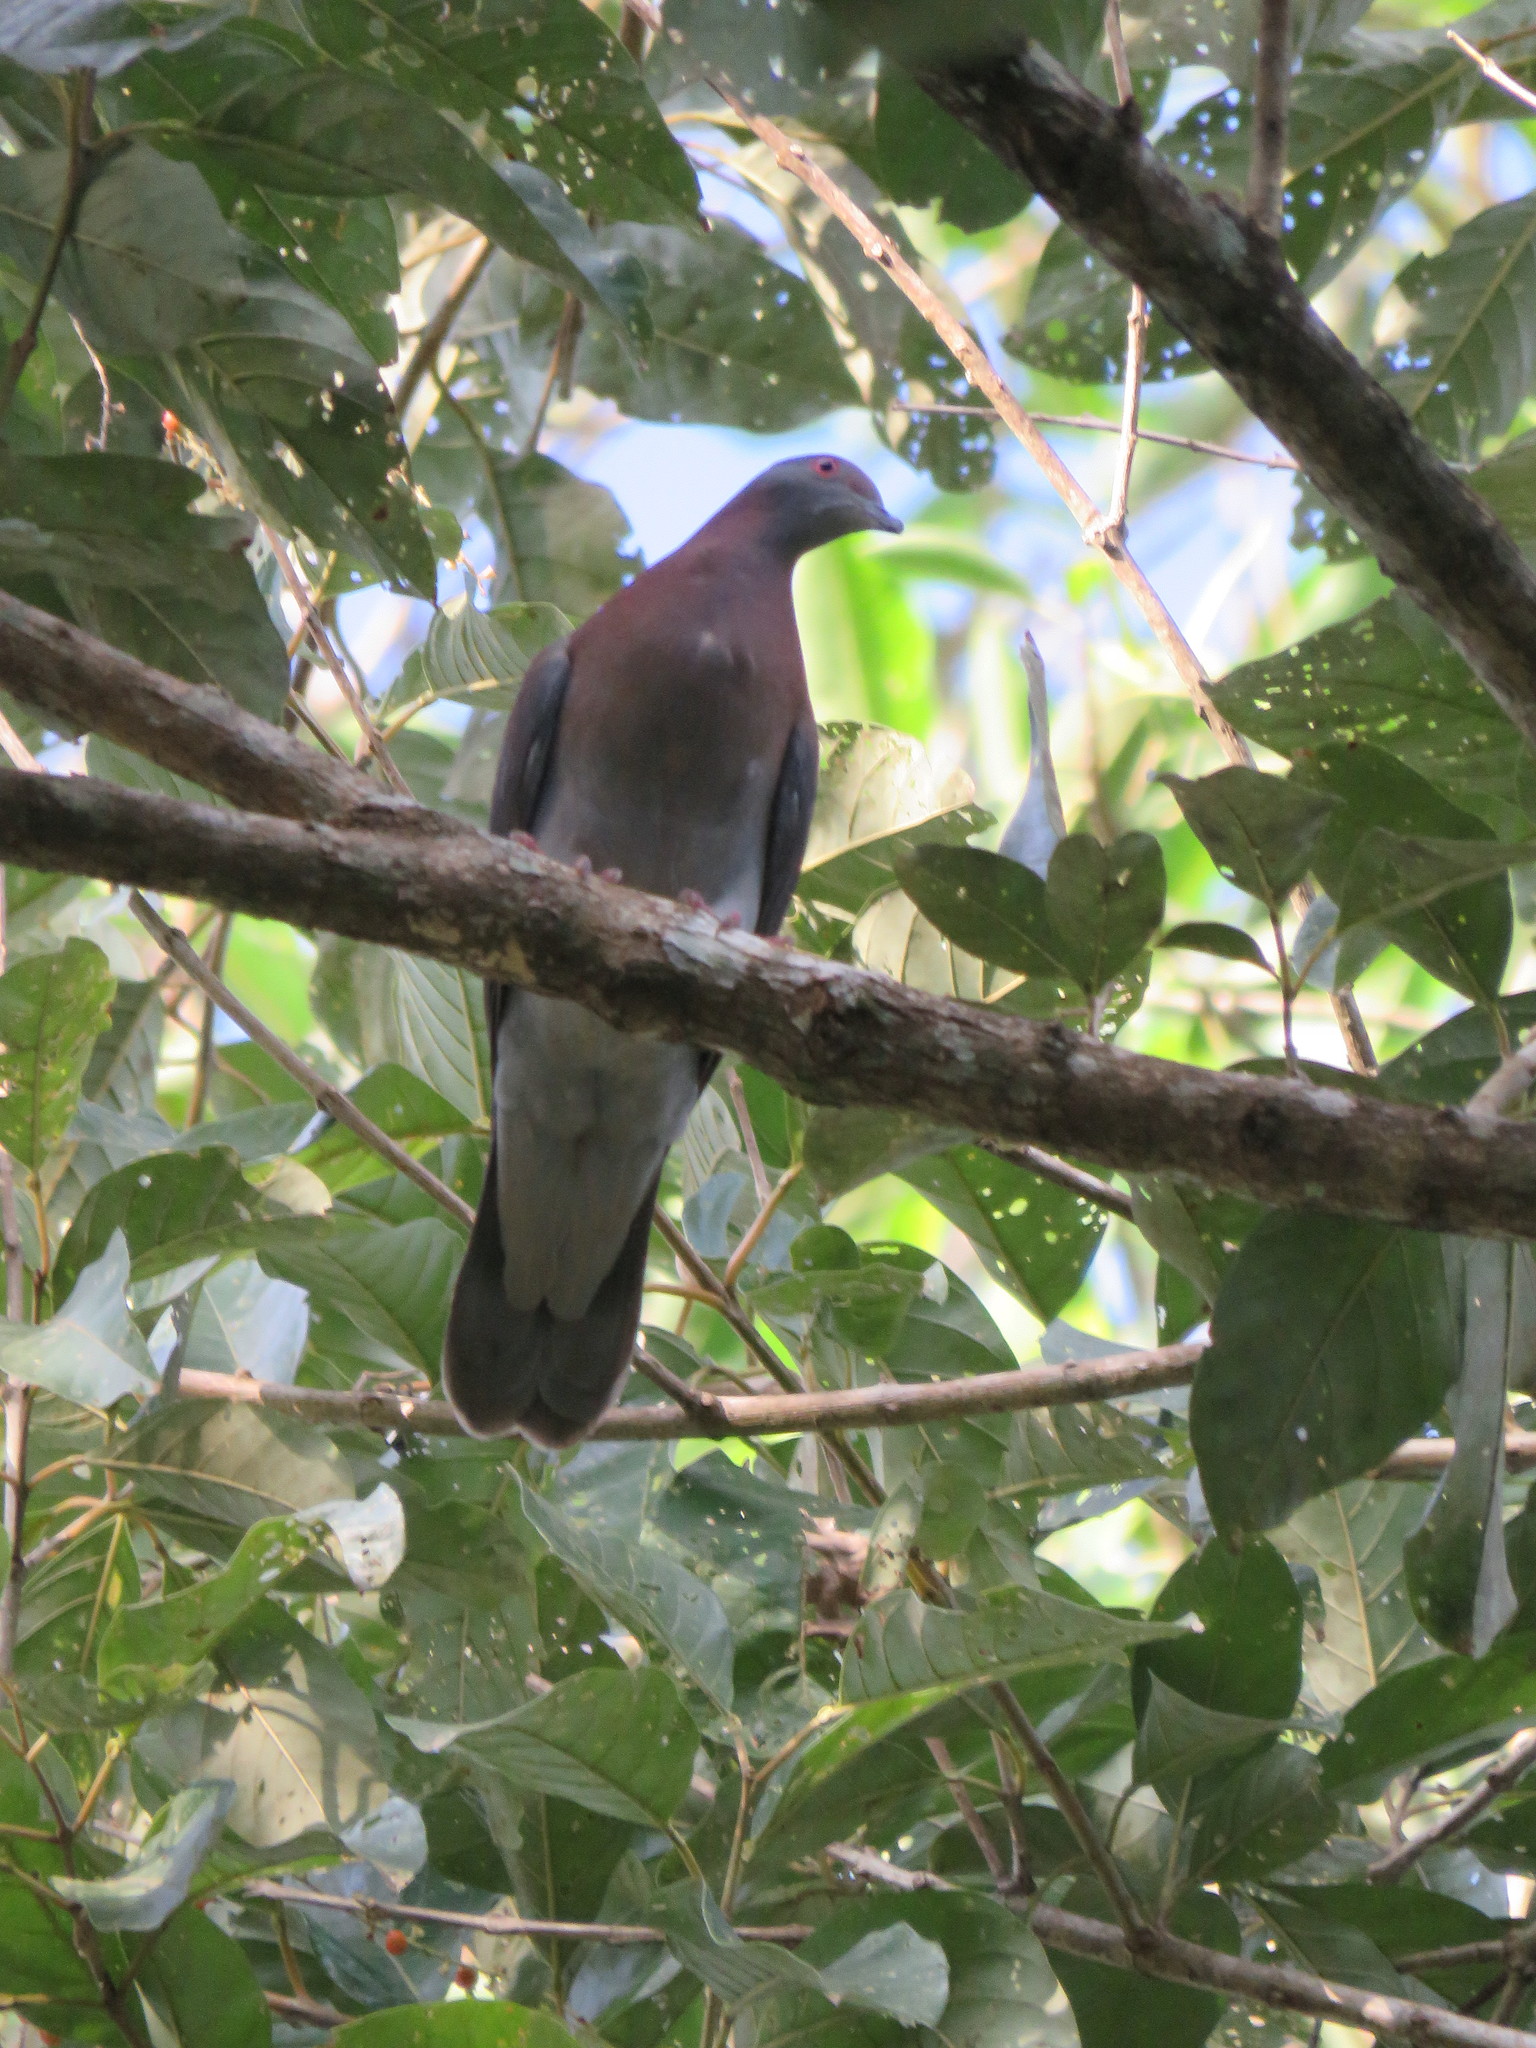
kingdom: Animalia
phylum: Chordata
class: Aves
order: Columbiformes
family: Columbidae
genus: Patagioenas
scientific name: Patagioenas cayennensis
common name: Pale-vented pigeon
